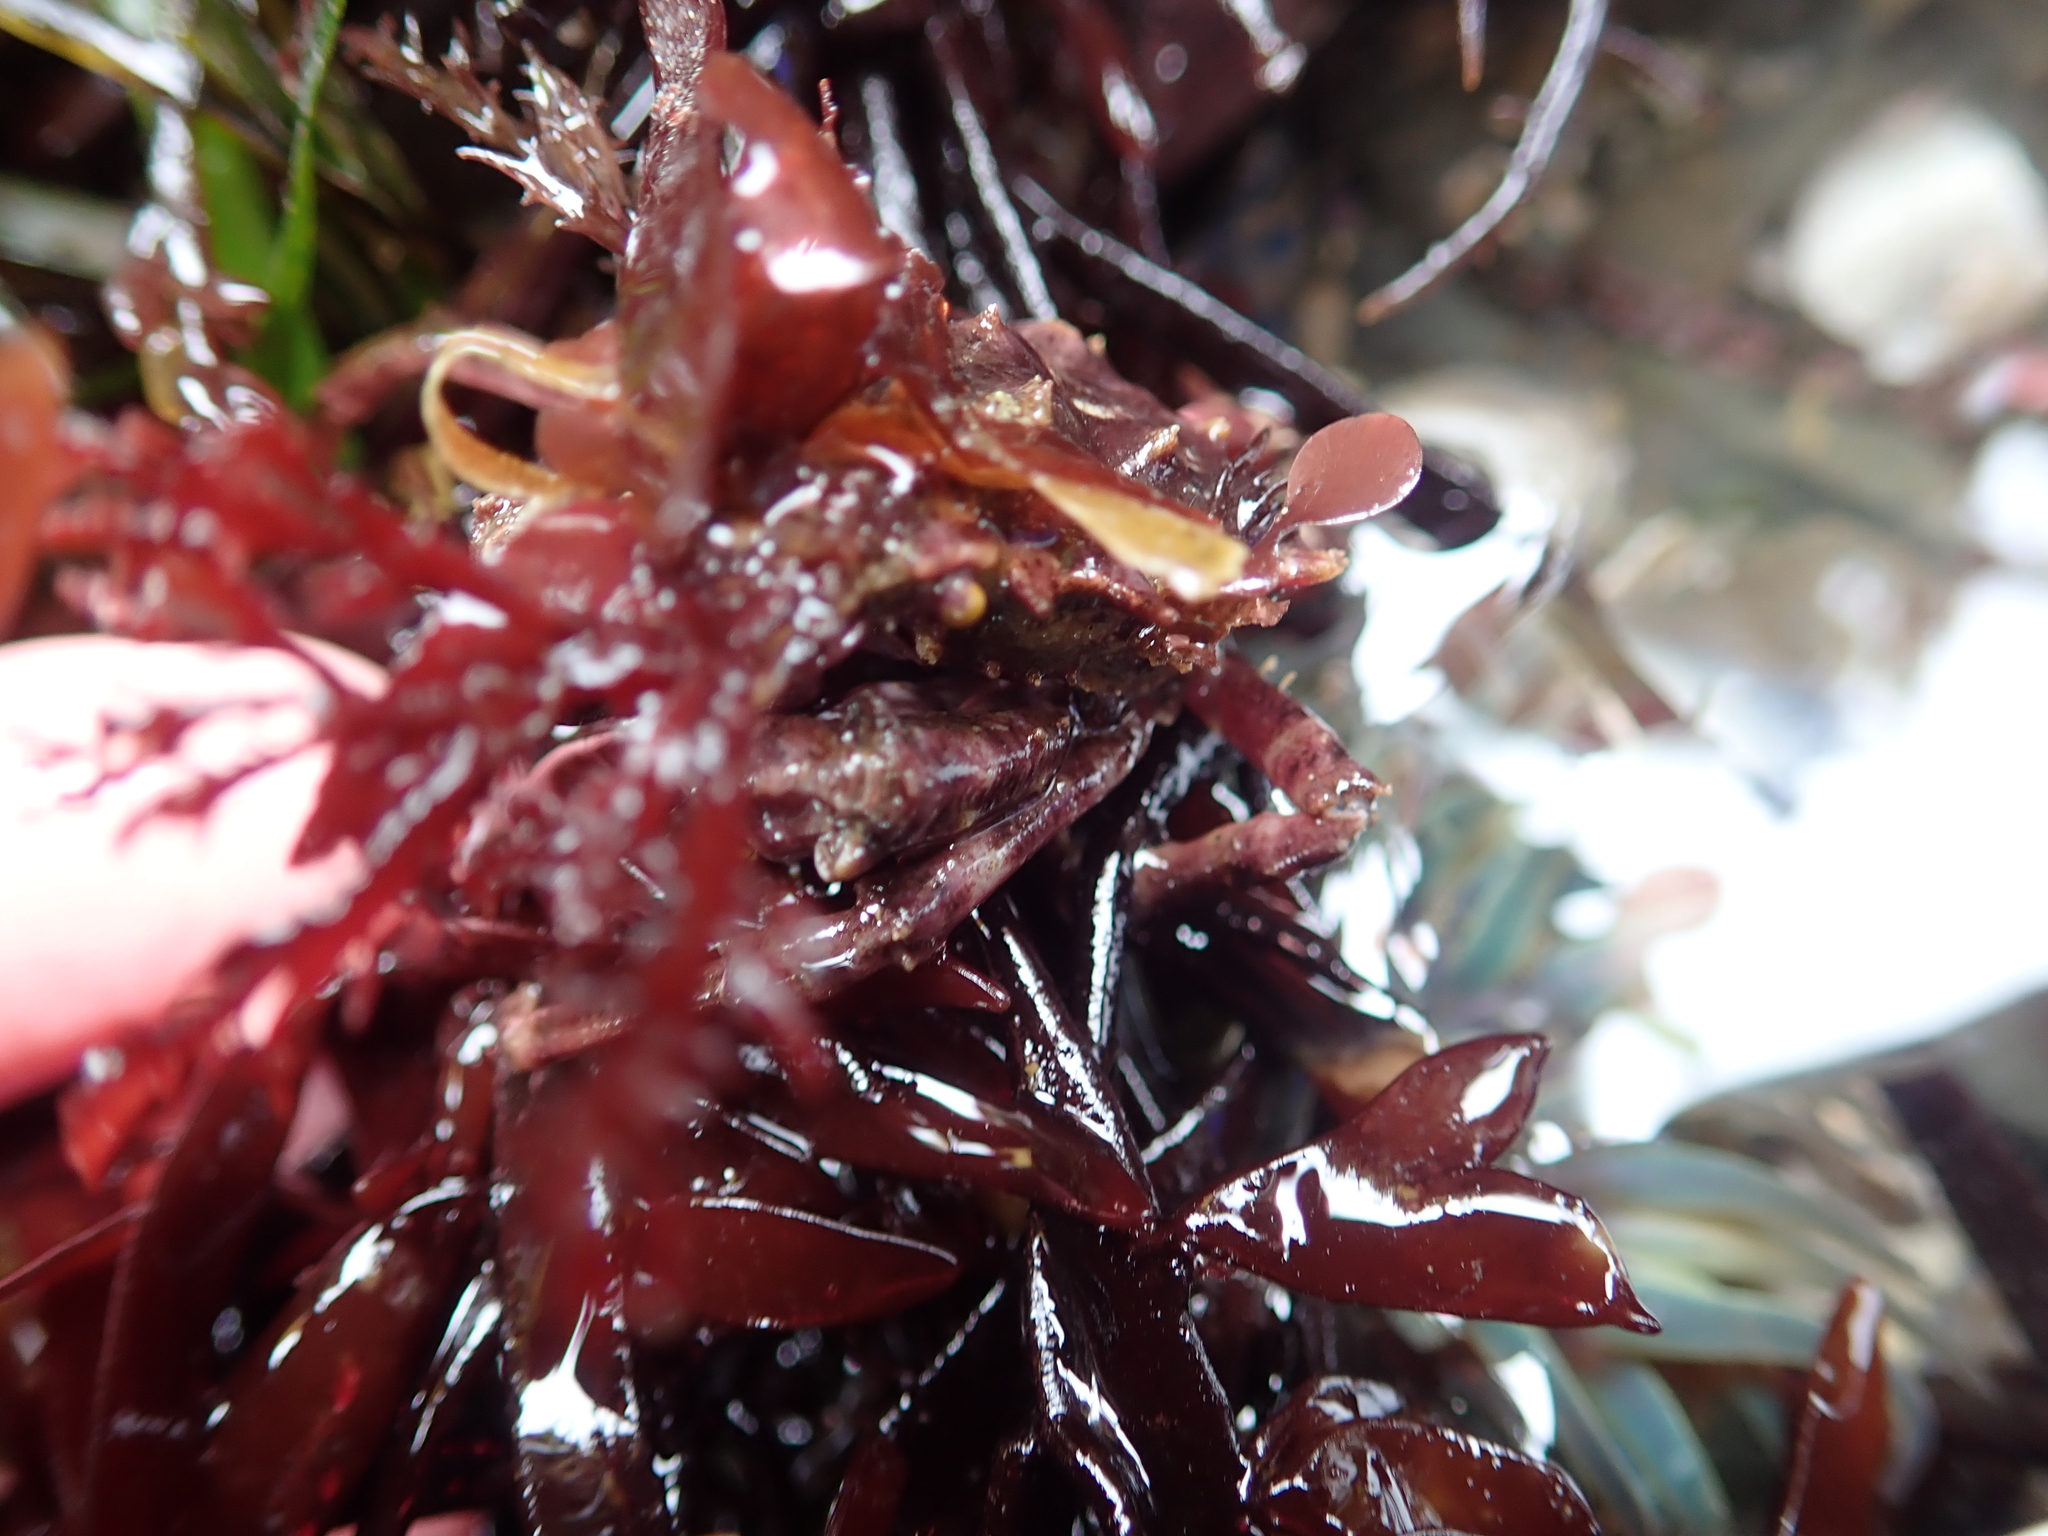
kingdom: Animalia
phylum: Arthropoda
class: Malacostraca
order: Decapoda
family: Epialtidae
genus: Pugettia
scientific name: Pugettia richii
